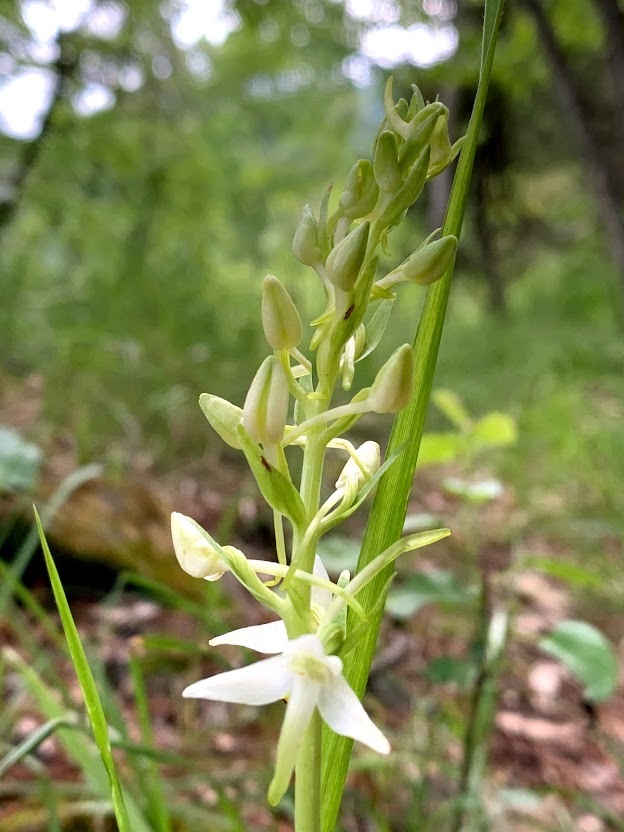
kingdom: Plantae
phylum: Tracheophyta
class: Liliopsida
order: Asparagales
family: Orchidaceae
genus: Platanthera
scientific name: Platanthera bifolia
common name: Lesser butterfly-orchid
